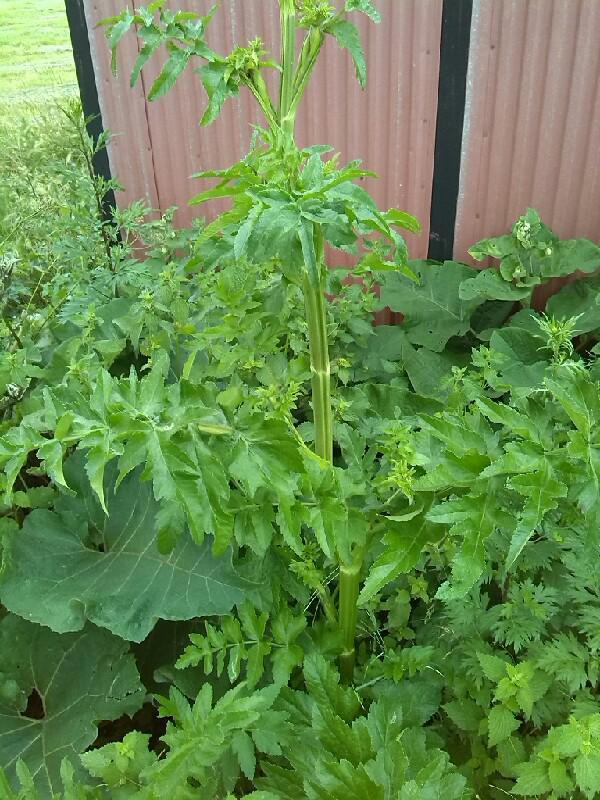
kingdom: Plantae
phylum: Tracheophyta
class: Magnoliopsida
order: Apiales
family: Apiaceae
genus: Pastinaca
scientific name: Pastinaca sativa
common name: Wild parsnip
